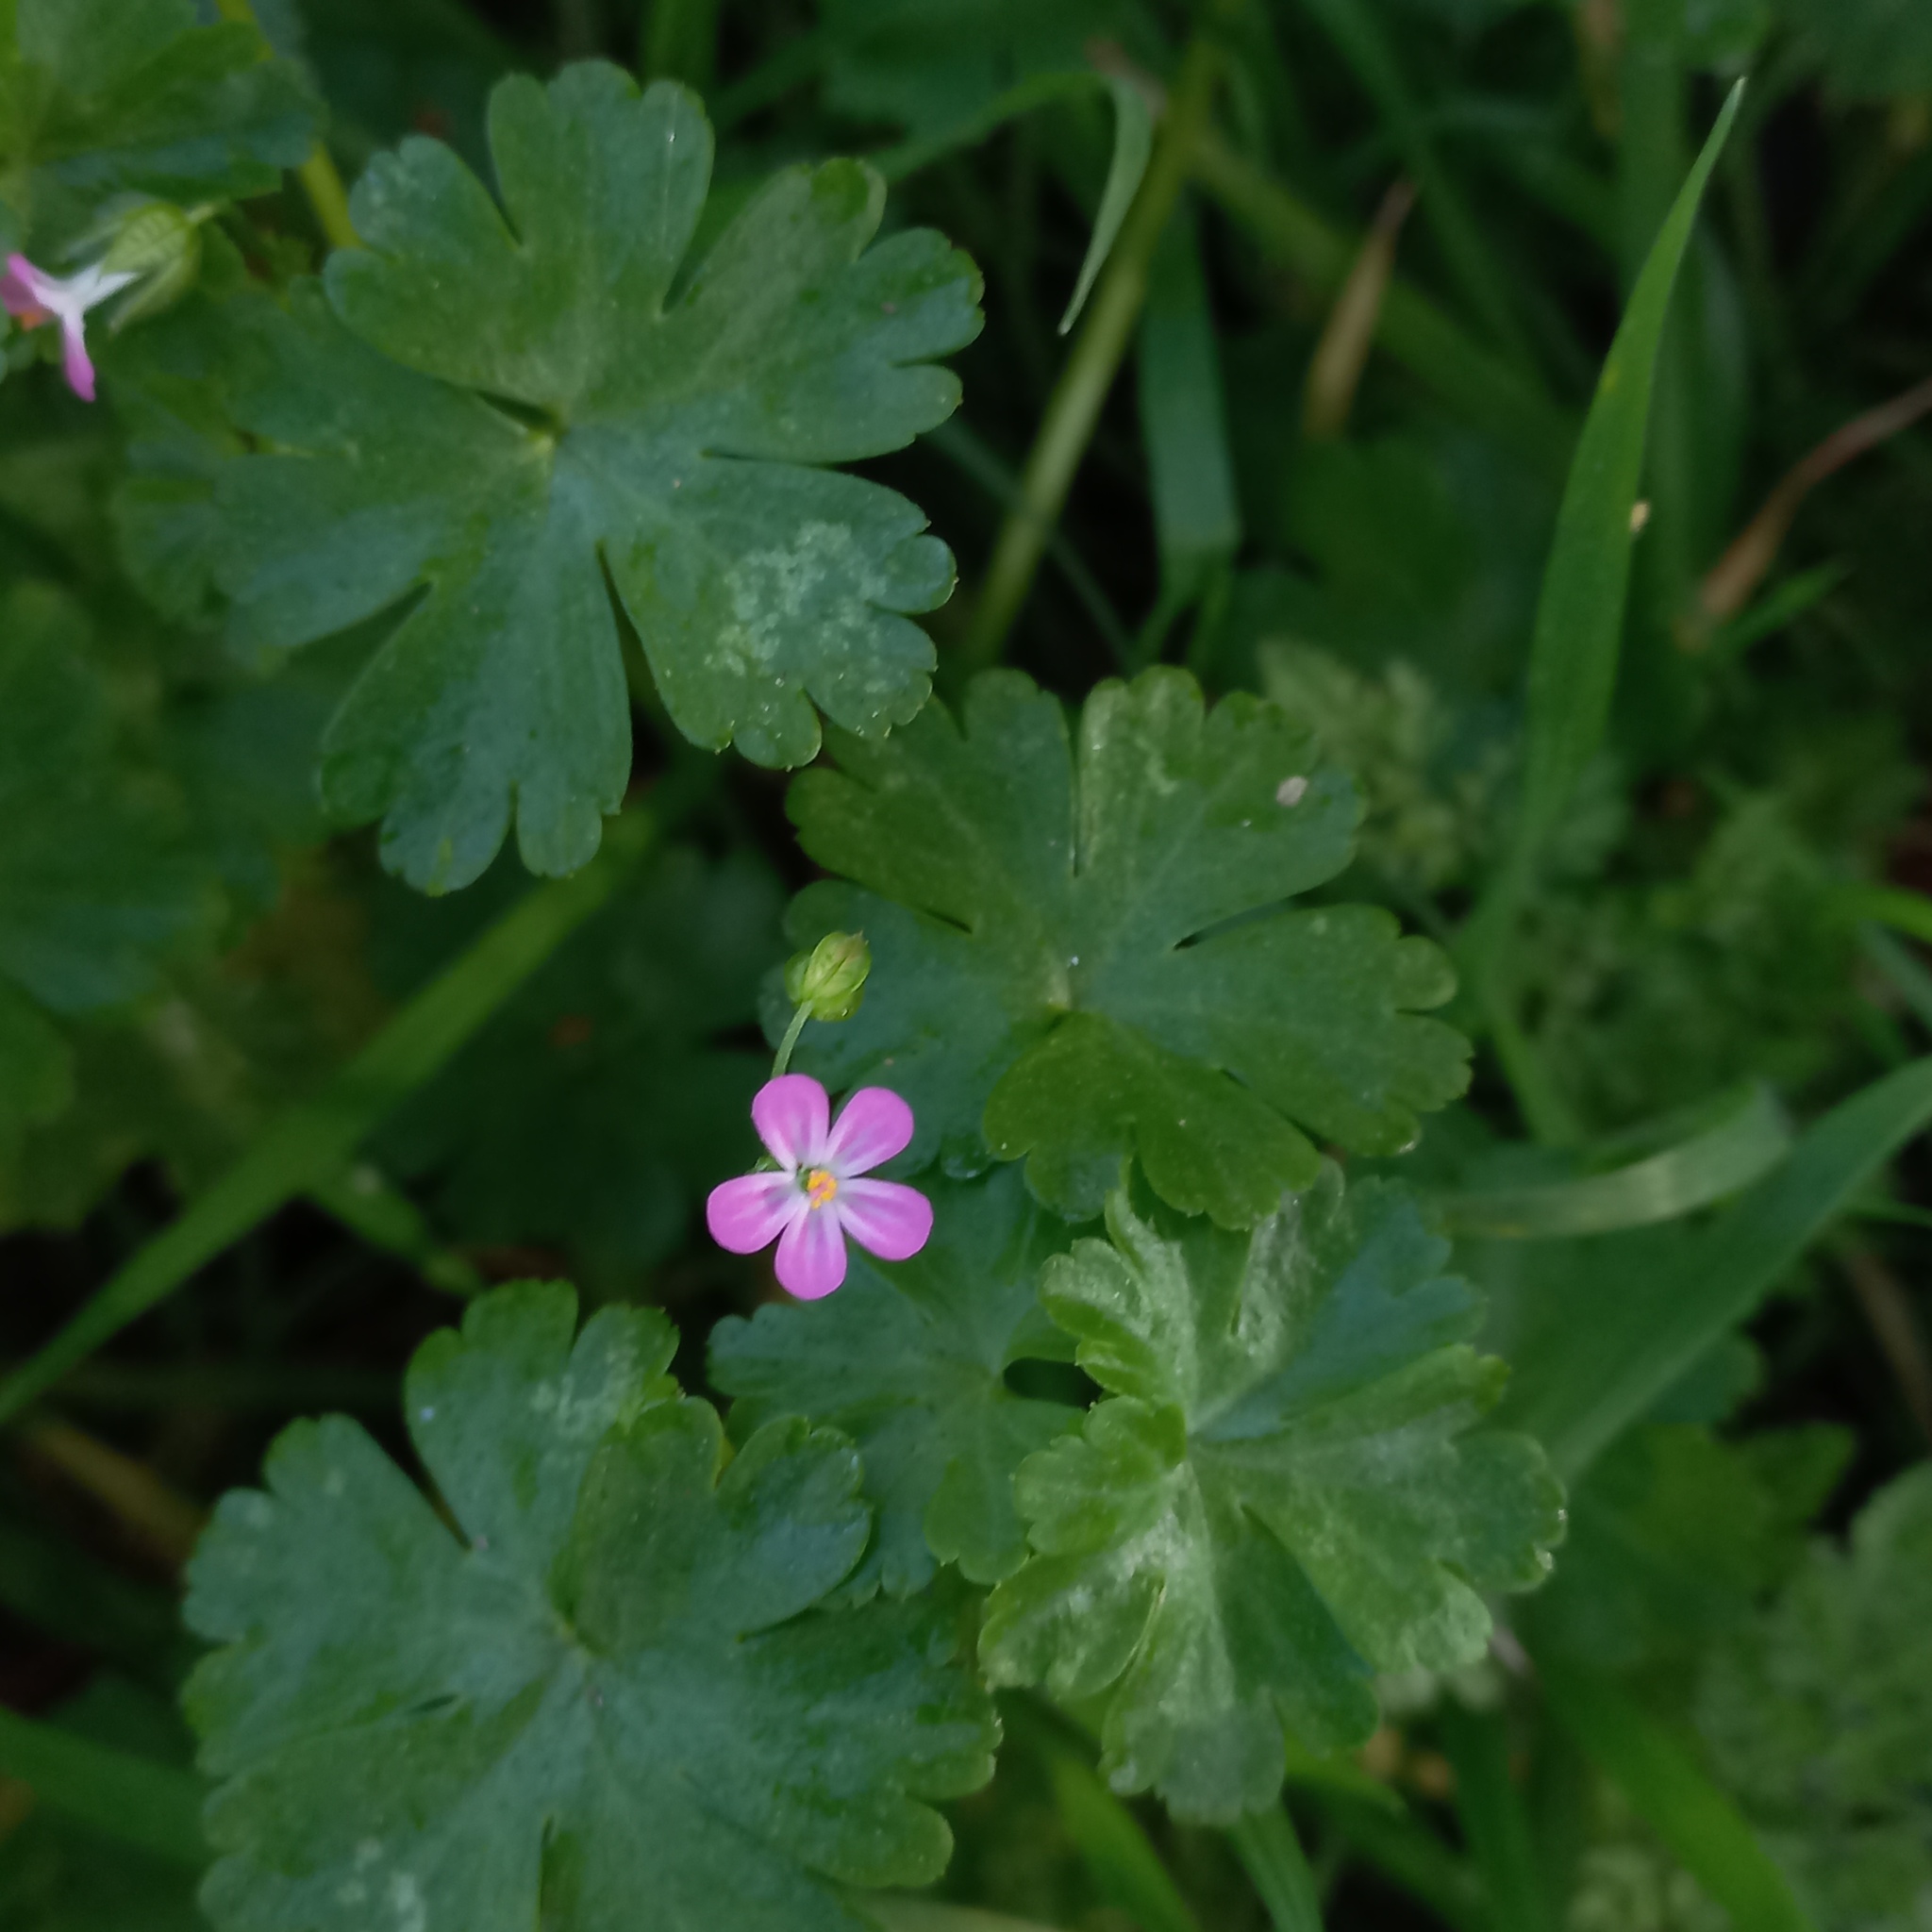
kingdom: Plantae
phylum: Tracheophyta
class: Magnoliopsida
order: Geraniales
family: Geraniaceae
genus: Geranium
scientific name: Geranium lucidum
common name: Shining crane's-bill
